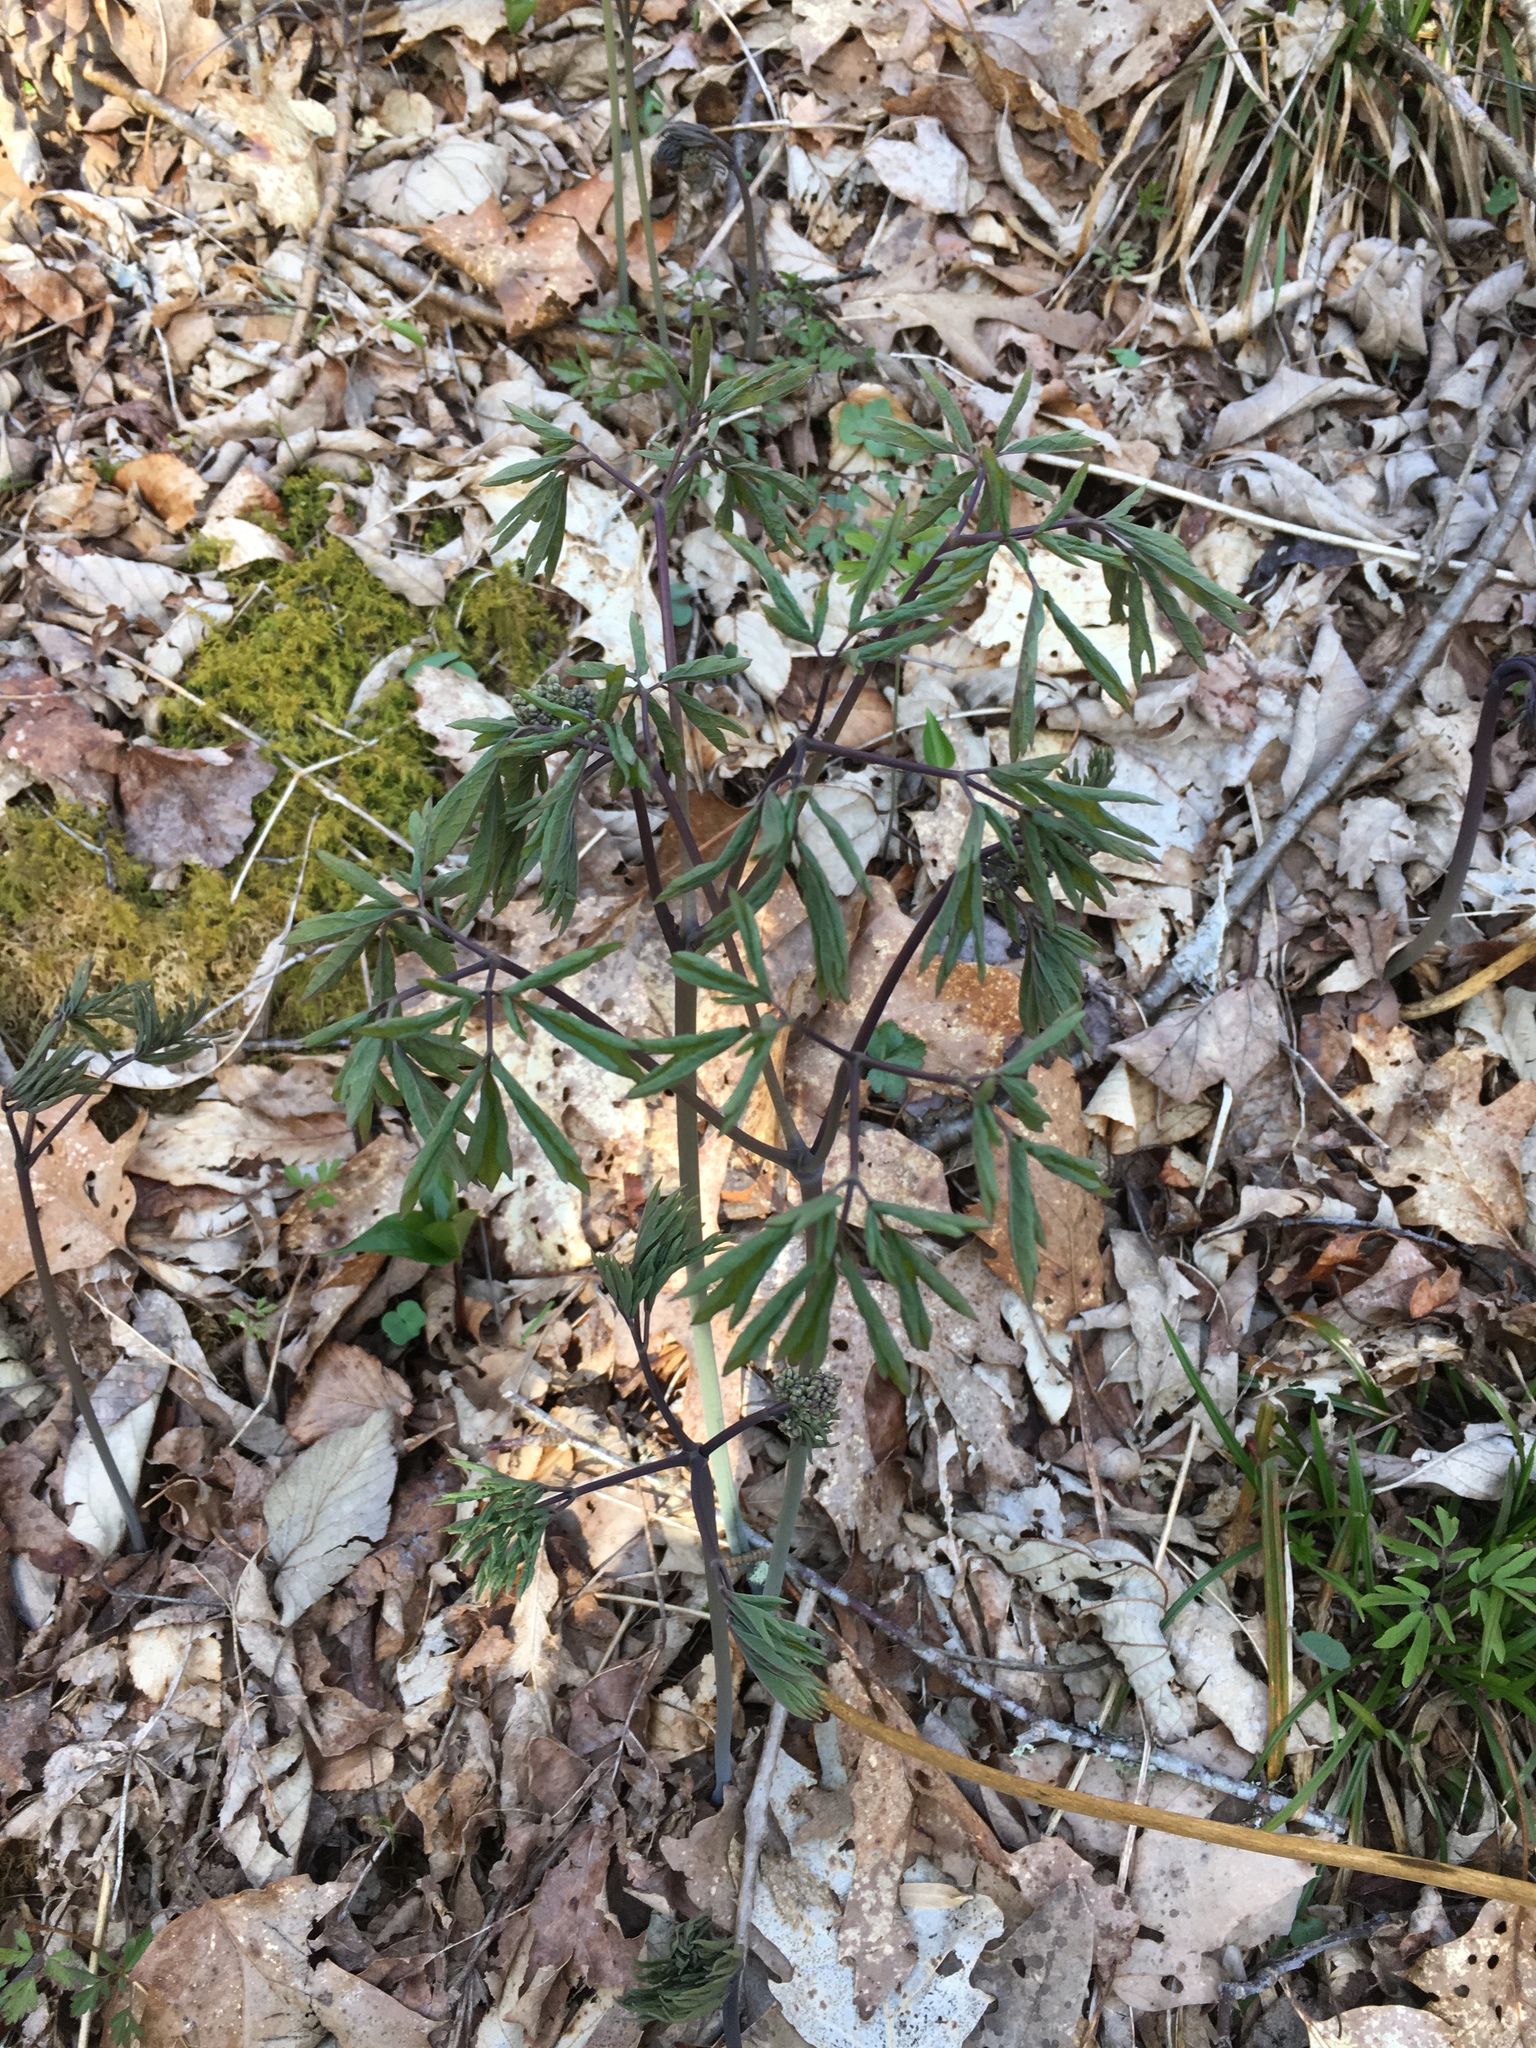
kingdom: Plantae
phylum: Tracheophyta
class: Magnoliopsida
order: Ranunculales
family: Berberidaceae
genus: Caulophyllum
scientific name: Caulophyllum thalictroides
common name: Blue cohosh
